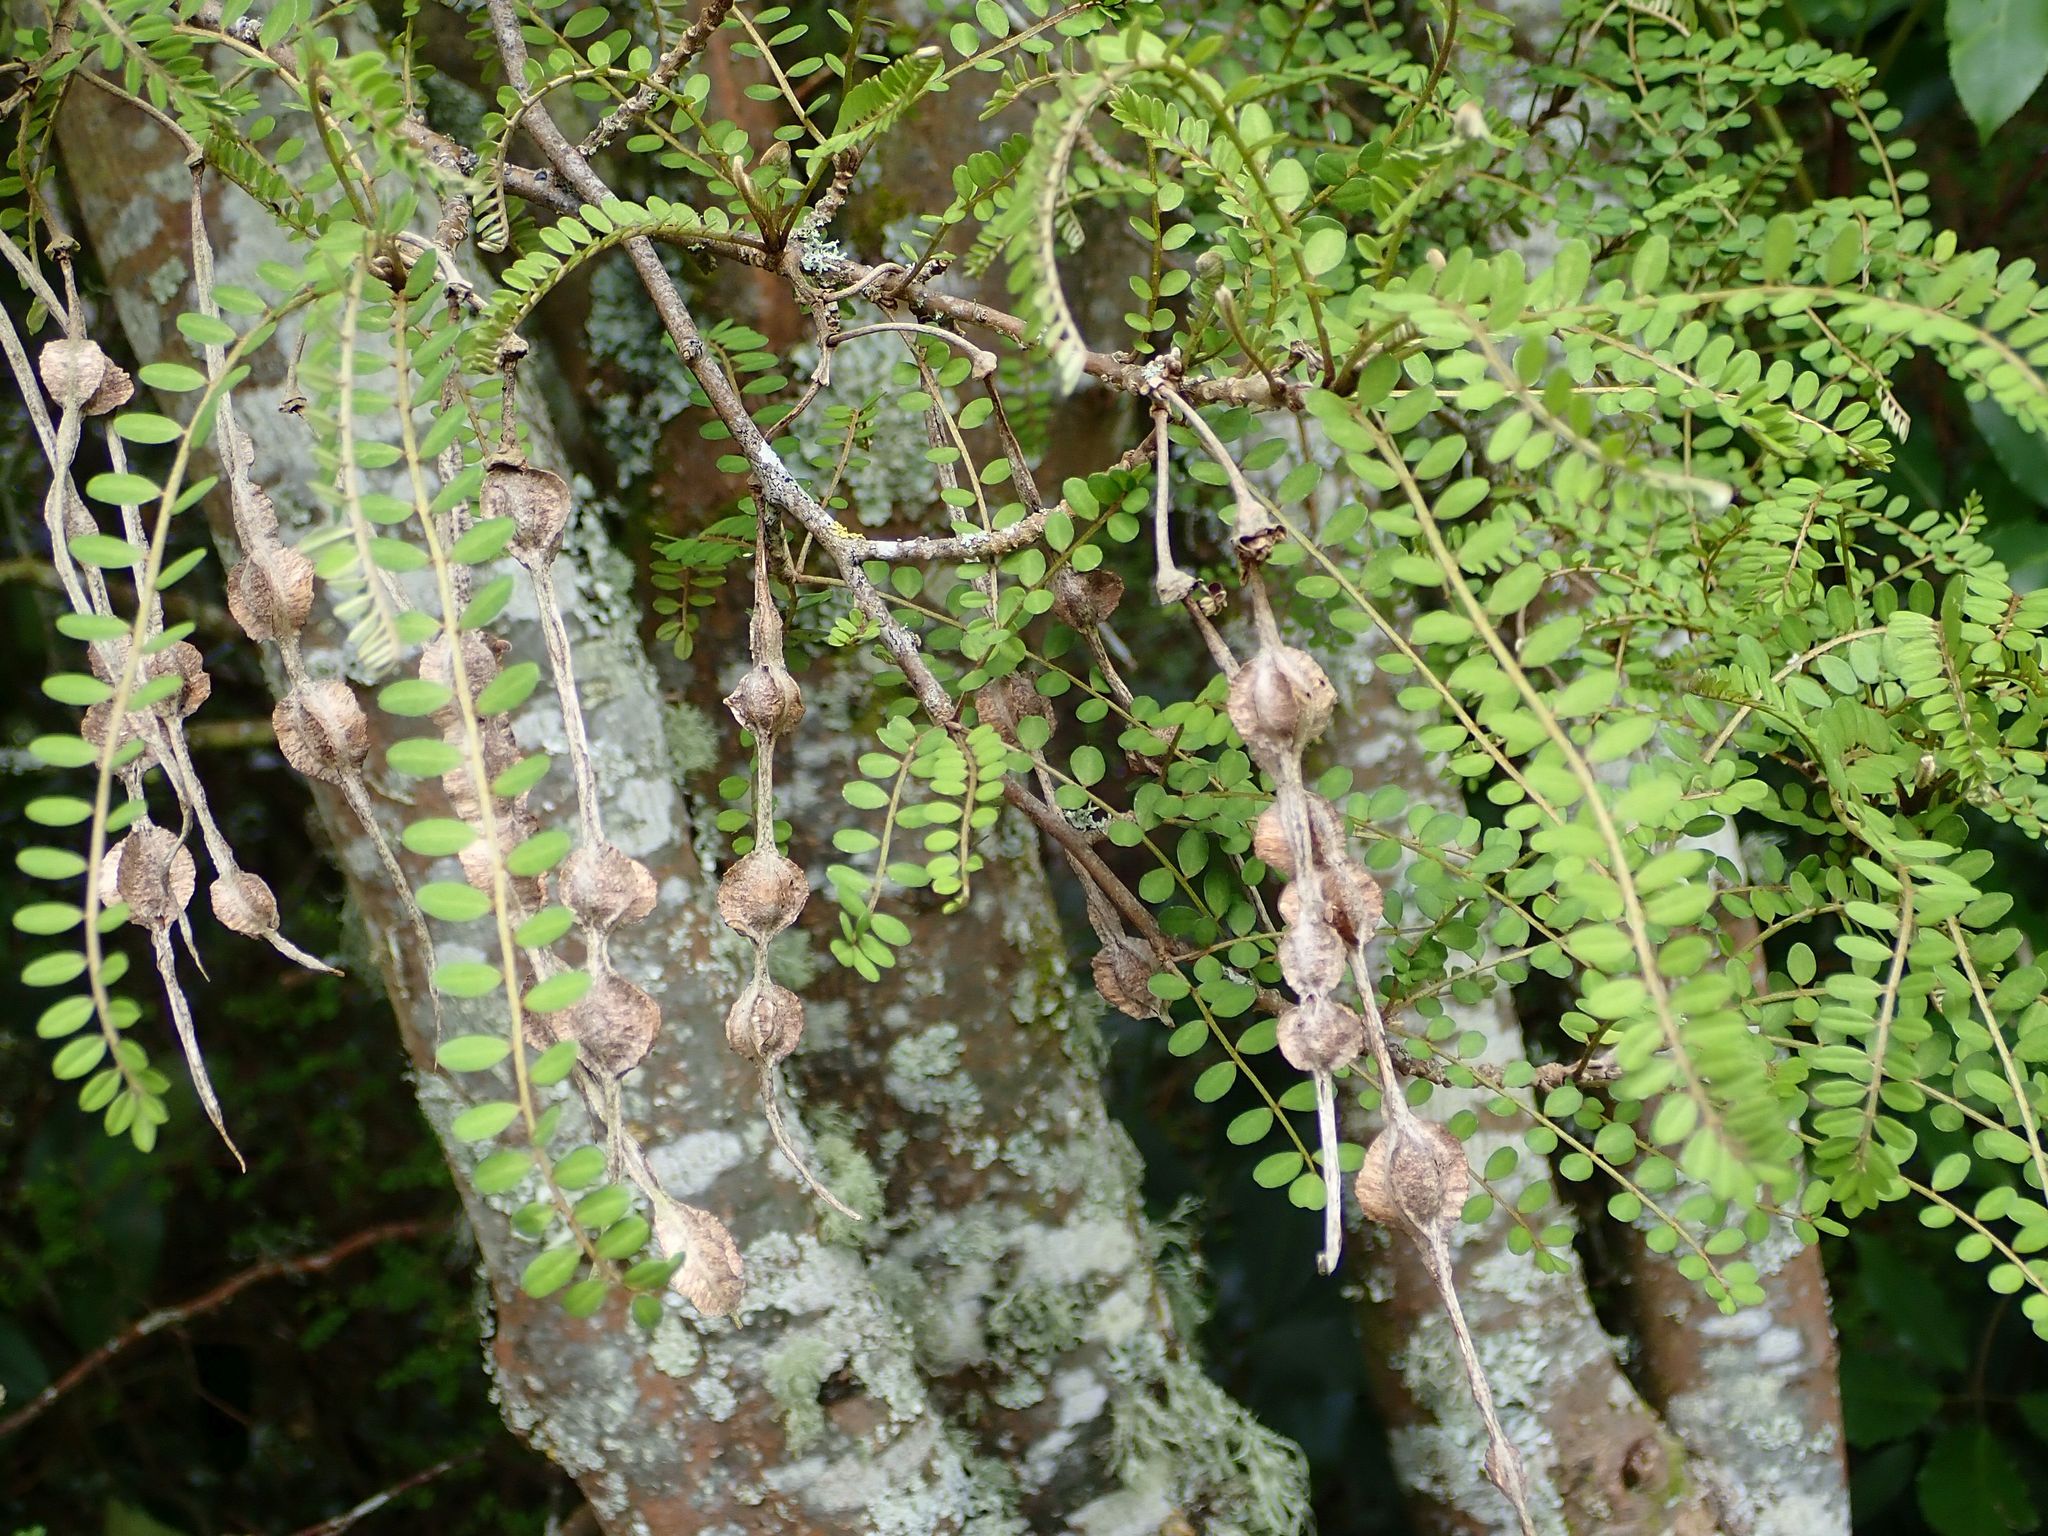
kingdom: Plantae
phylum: Tracheophyta
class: Magnoliopsida
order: Fabales
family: Fabaceae
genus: Sophora
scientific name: Sophora microphylla
